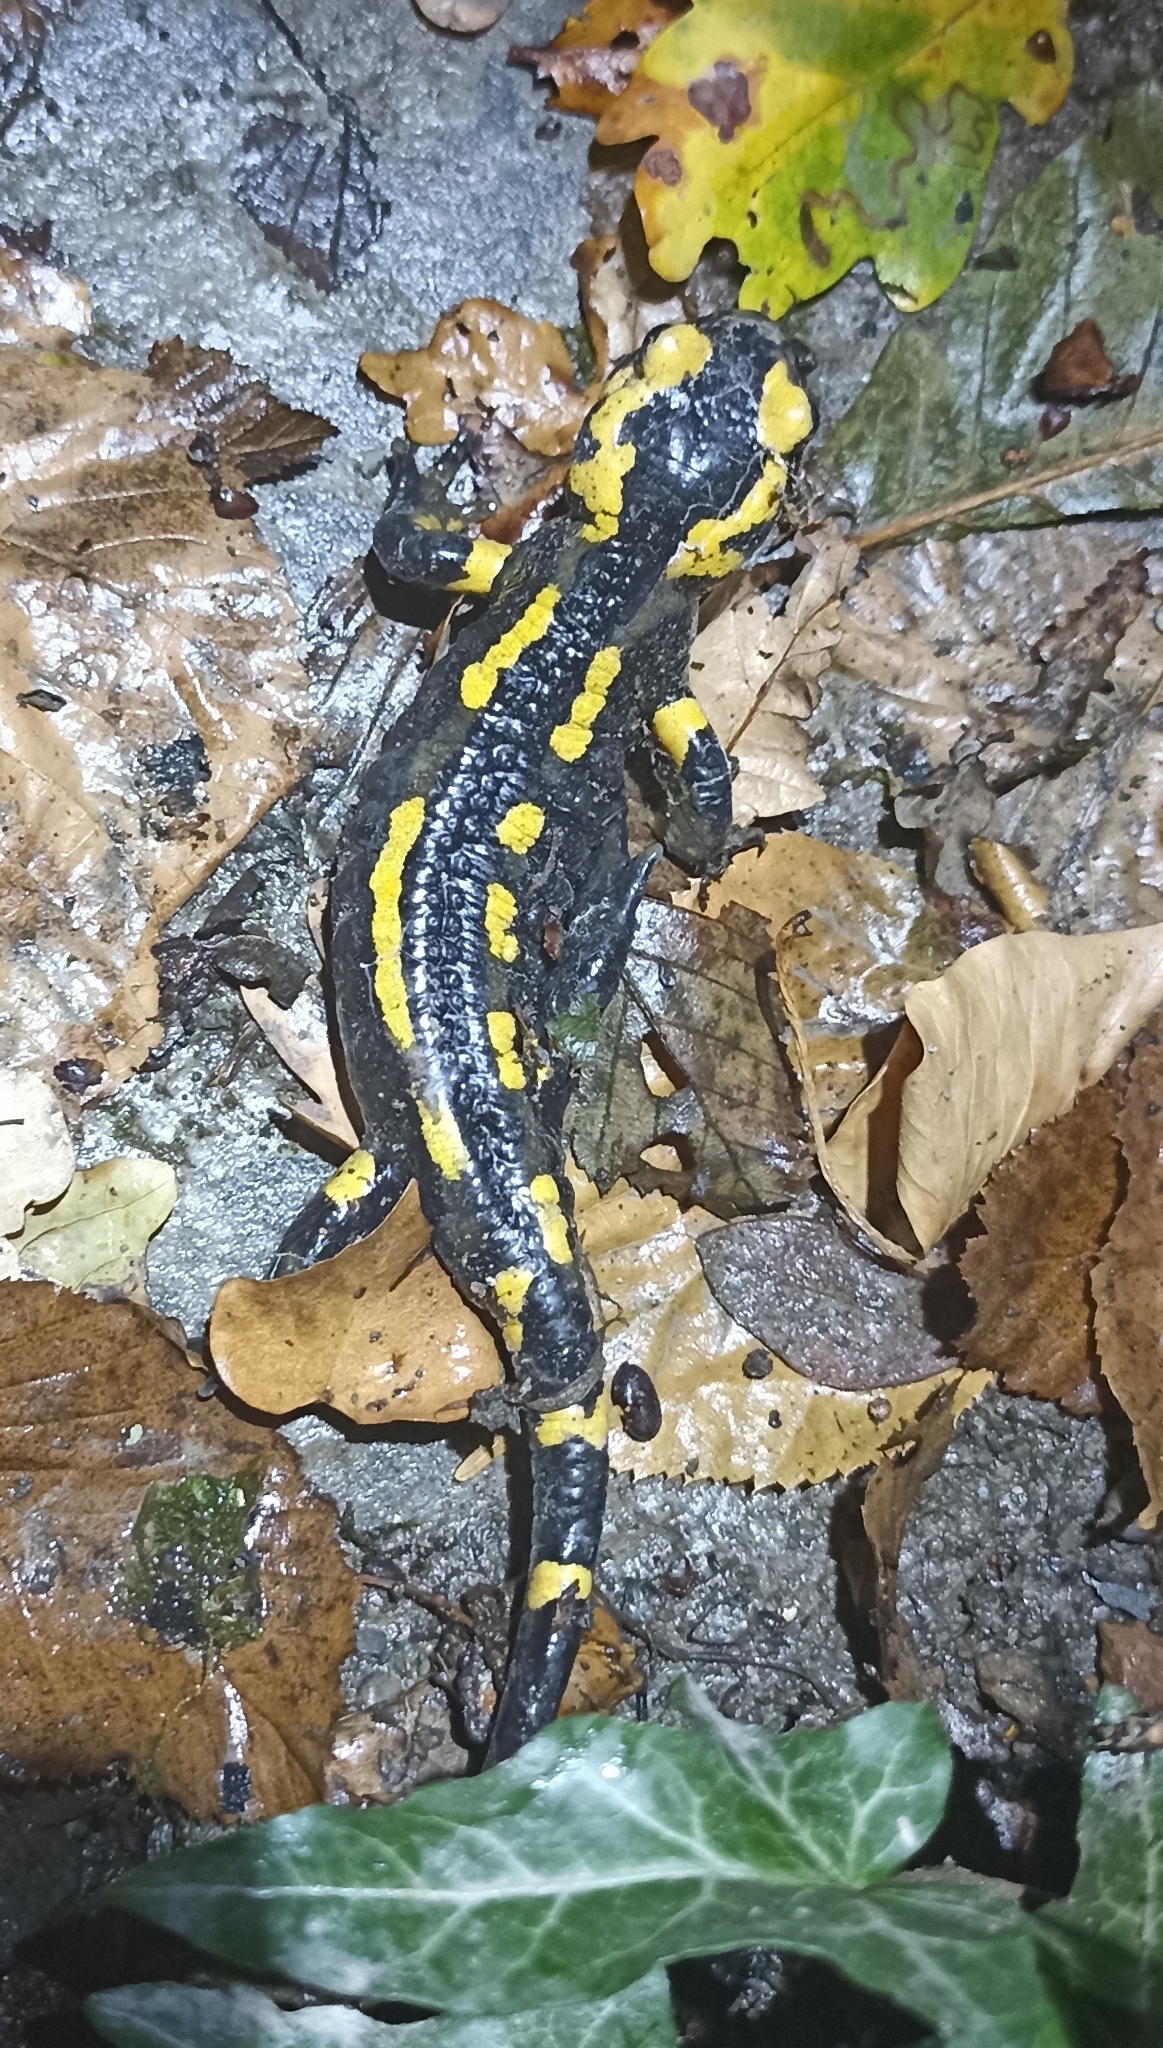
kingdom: Animalia
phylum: Chordata
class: Amphibia
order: Caudata
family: Salamandridae
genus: Salamandra
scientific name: Salamandra salamandra
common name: Fire salamander
